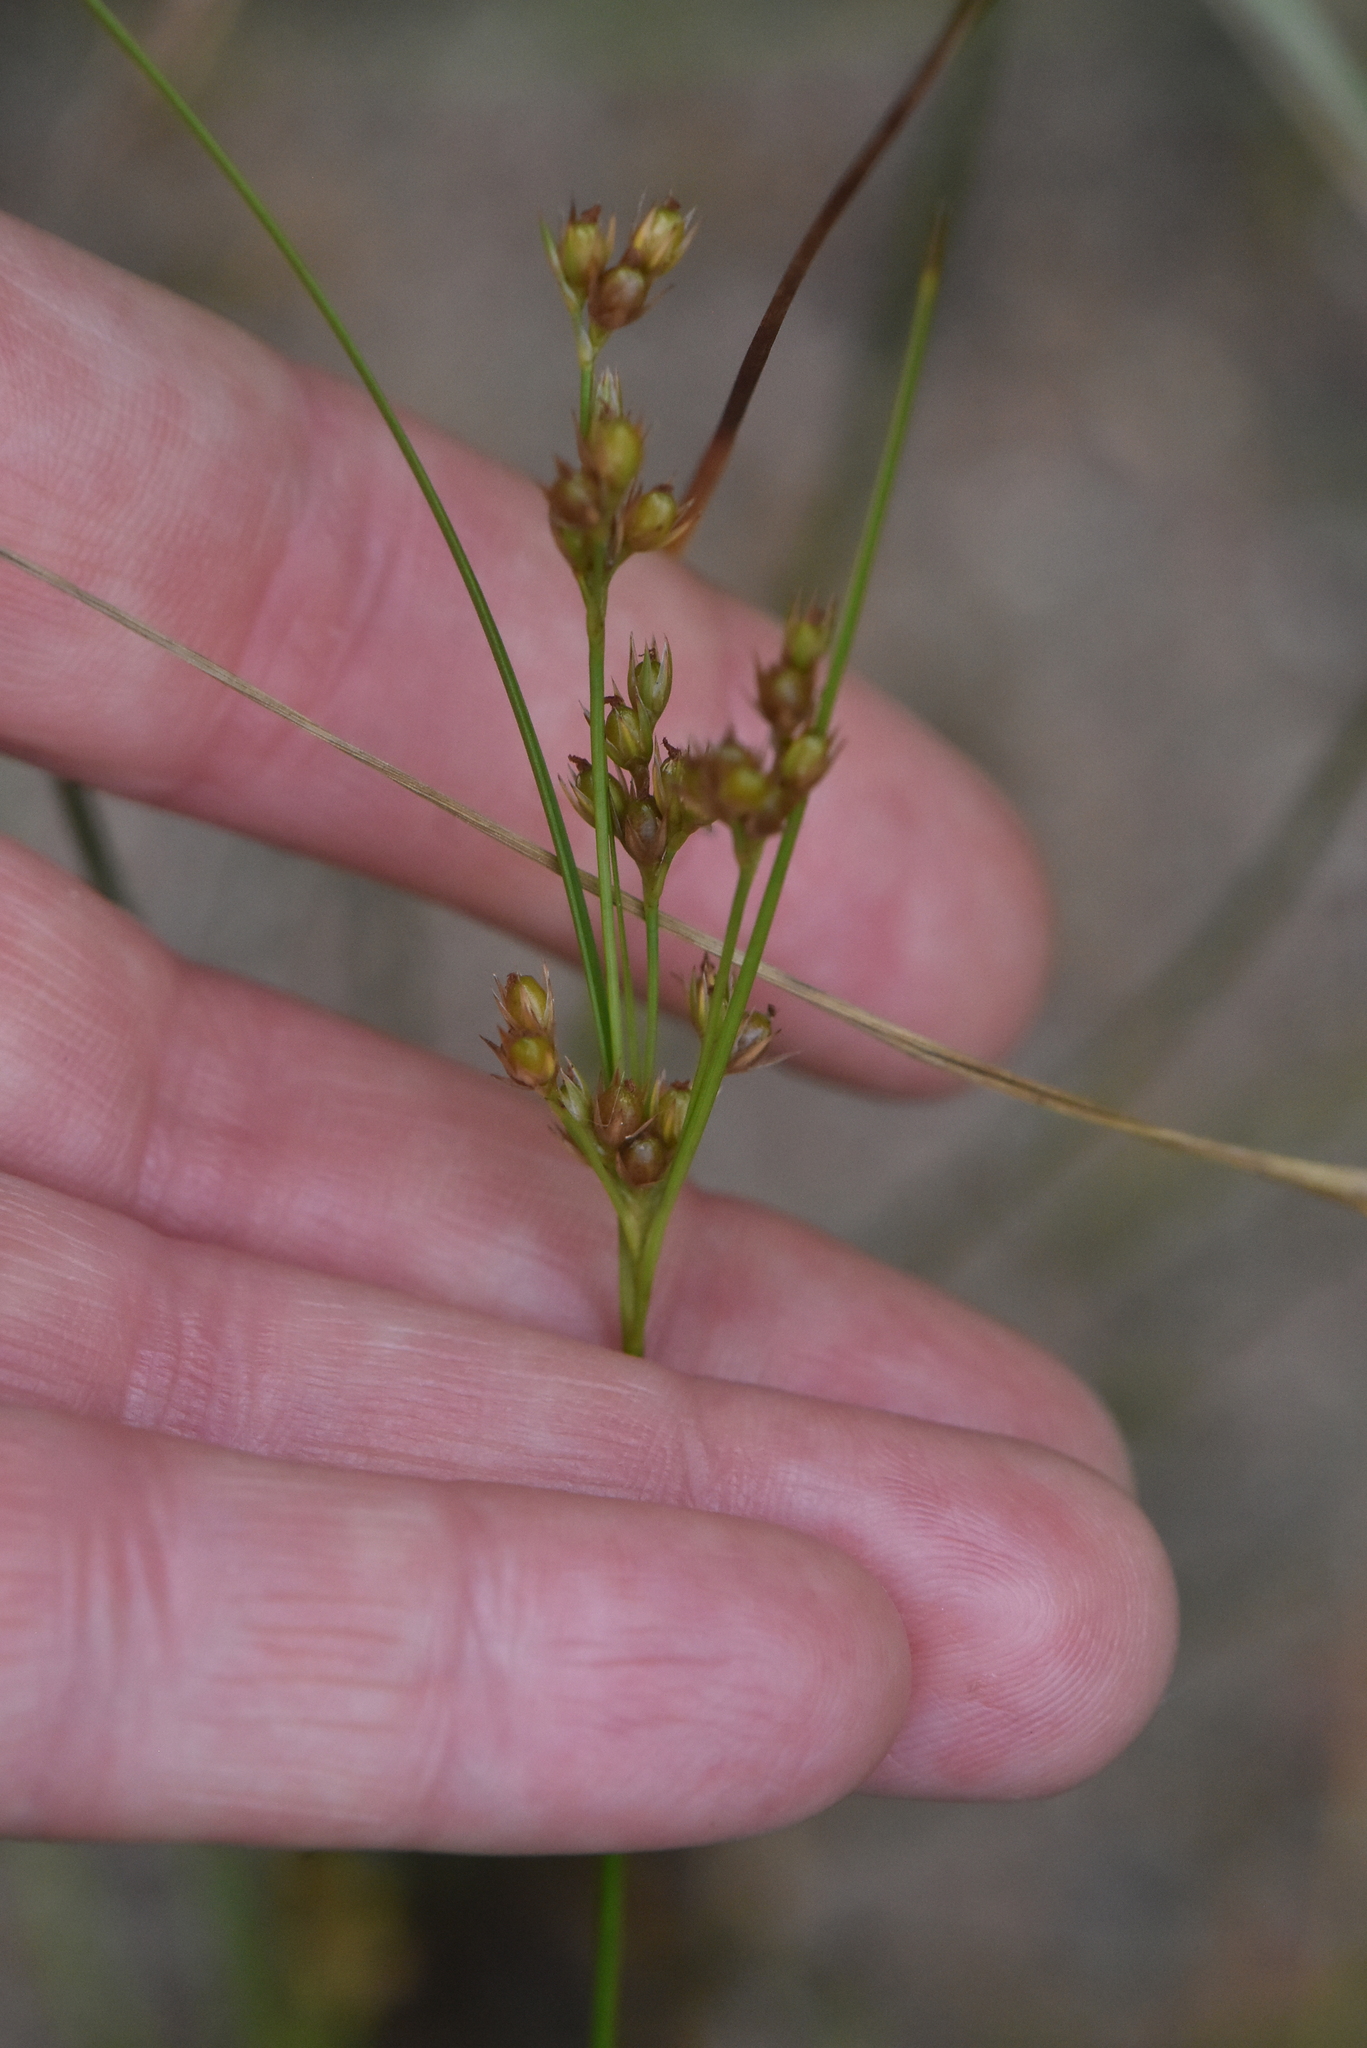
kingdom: Plantae
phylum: Tracheophyta
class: Liliopsida
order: Poales
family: Juncaceae
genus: Juncus
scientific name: Juncus tenuis
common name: Slender rush
